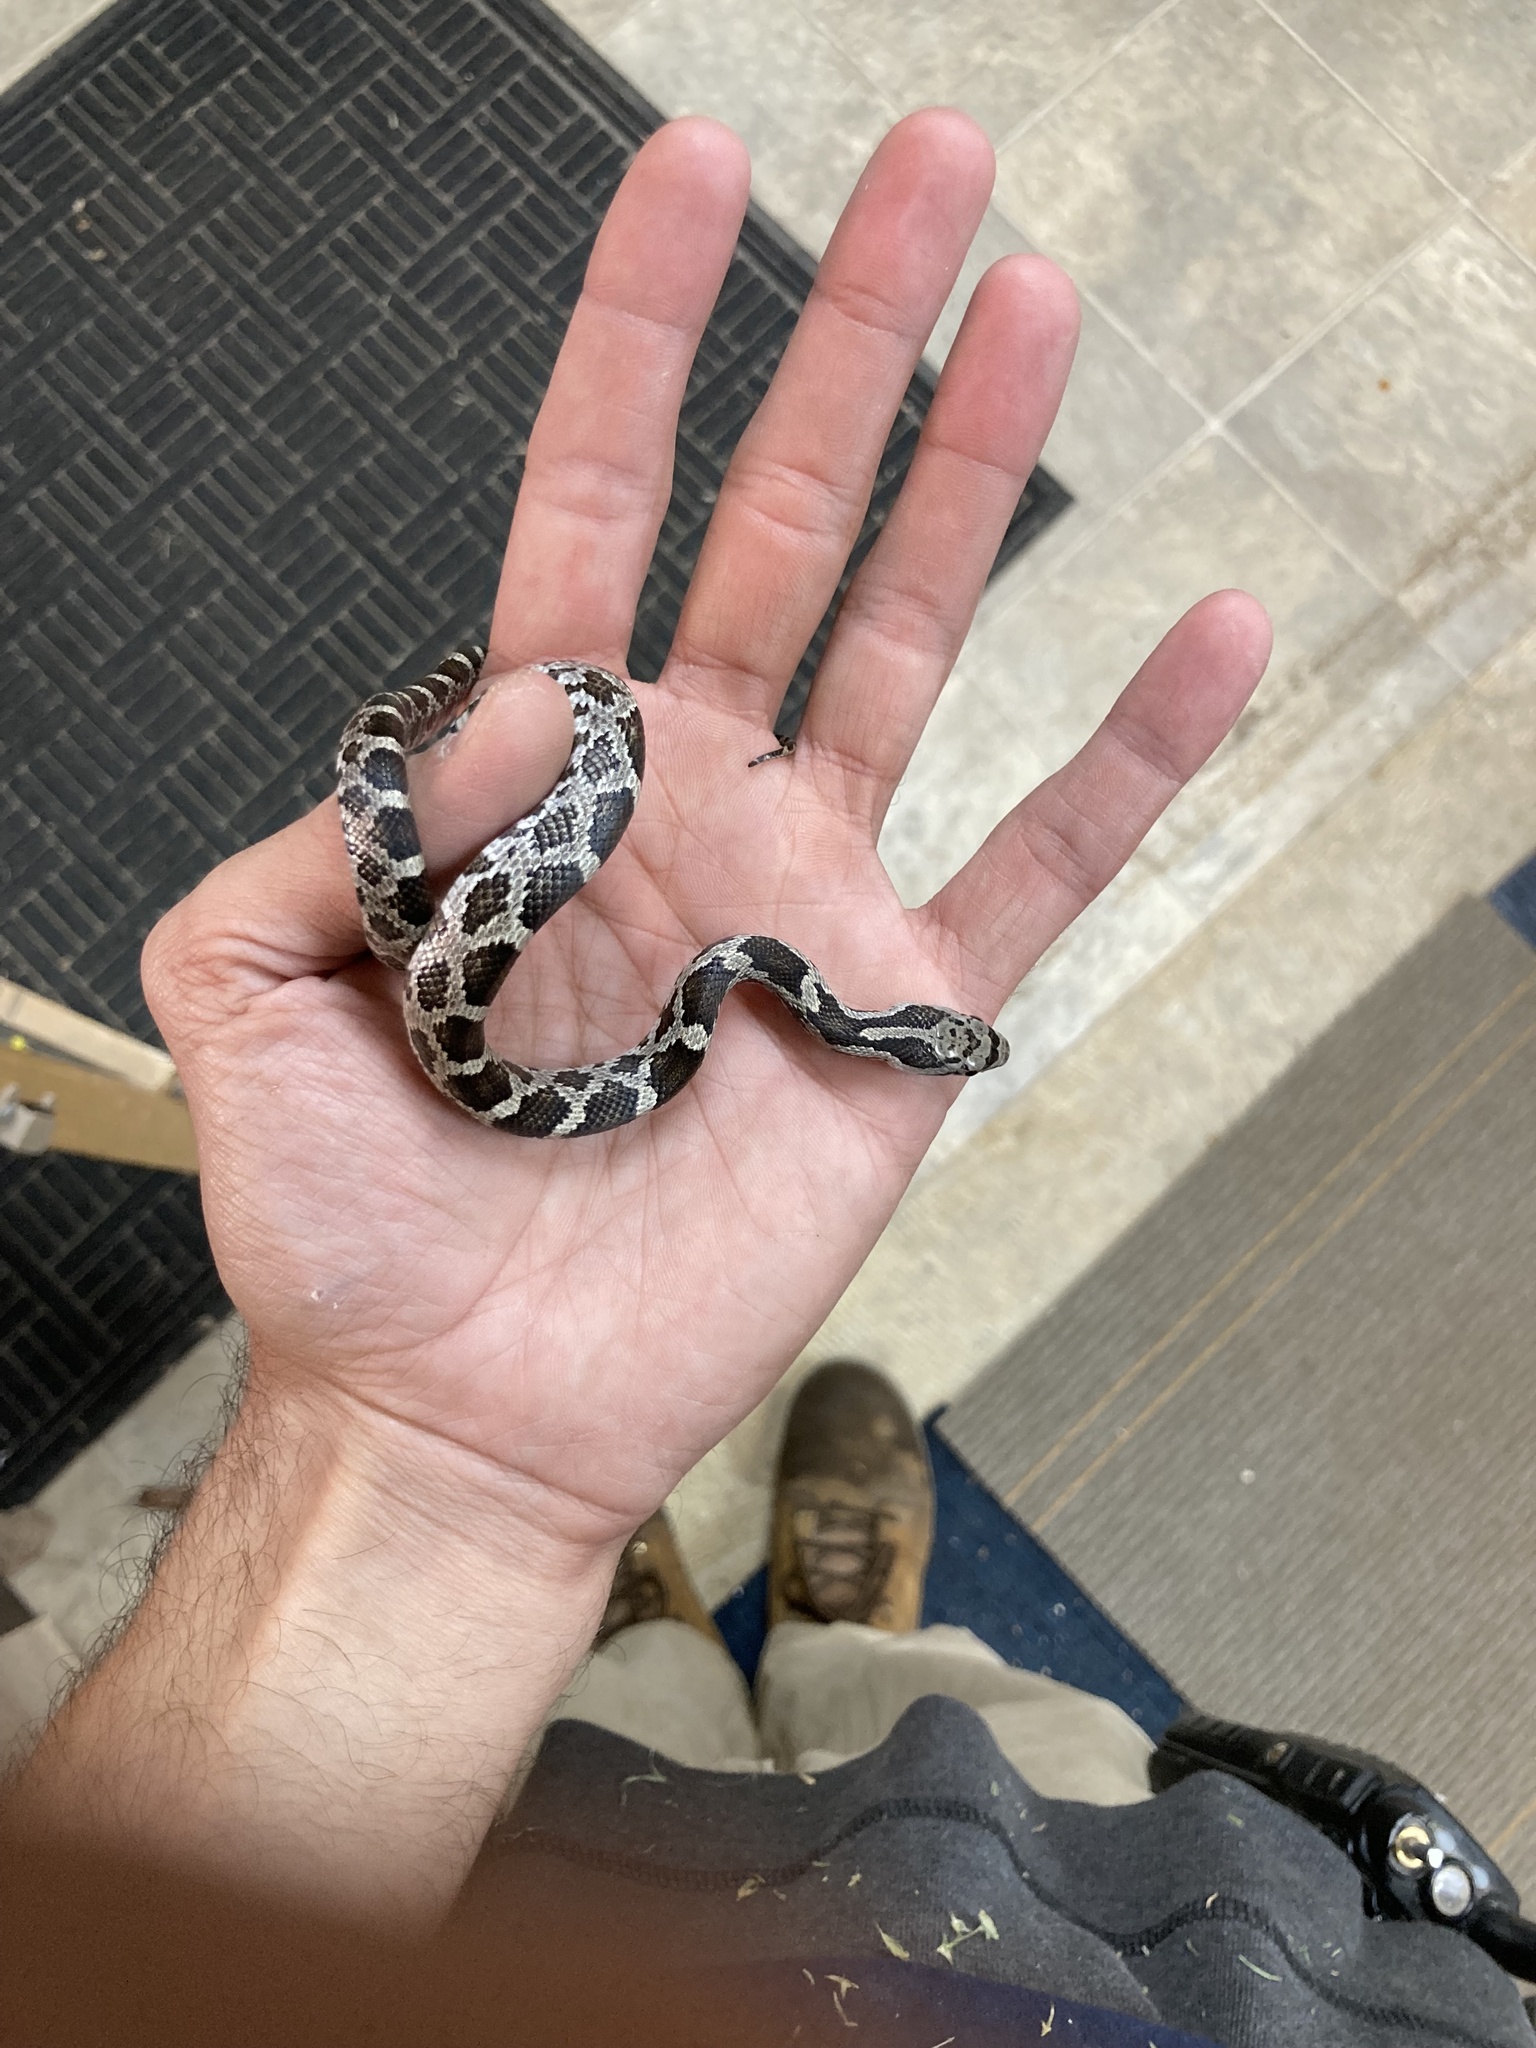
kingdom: Animalia
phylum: Chordata
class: Squamata
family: Colubridae
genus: Pantherophis
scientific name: Pantherophis spiloides
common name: Gray rat snake
